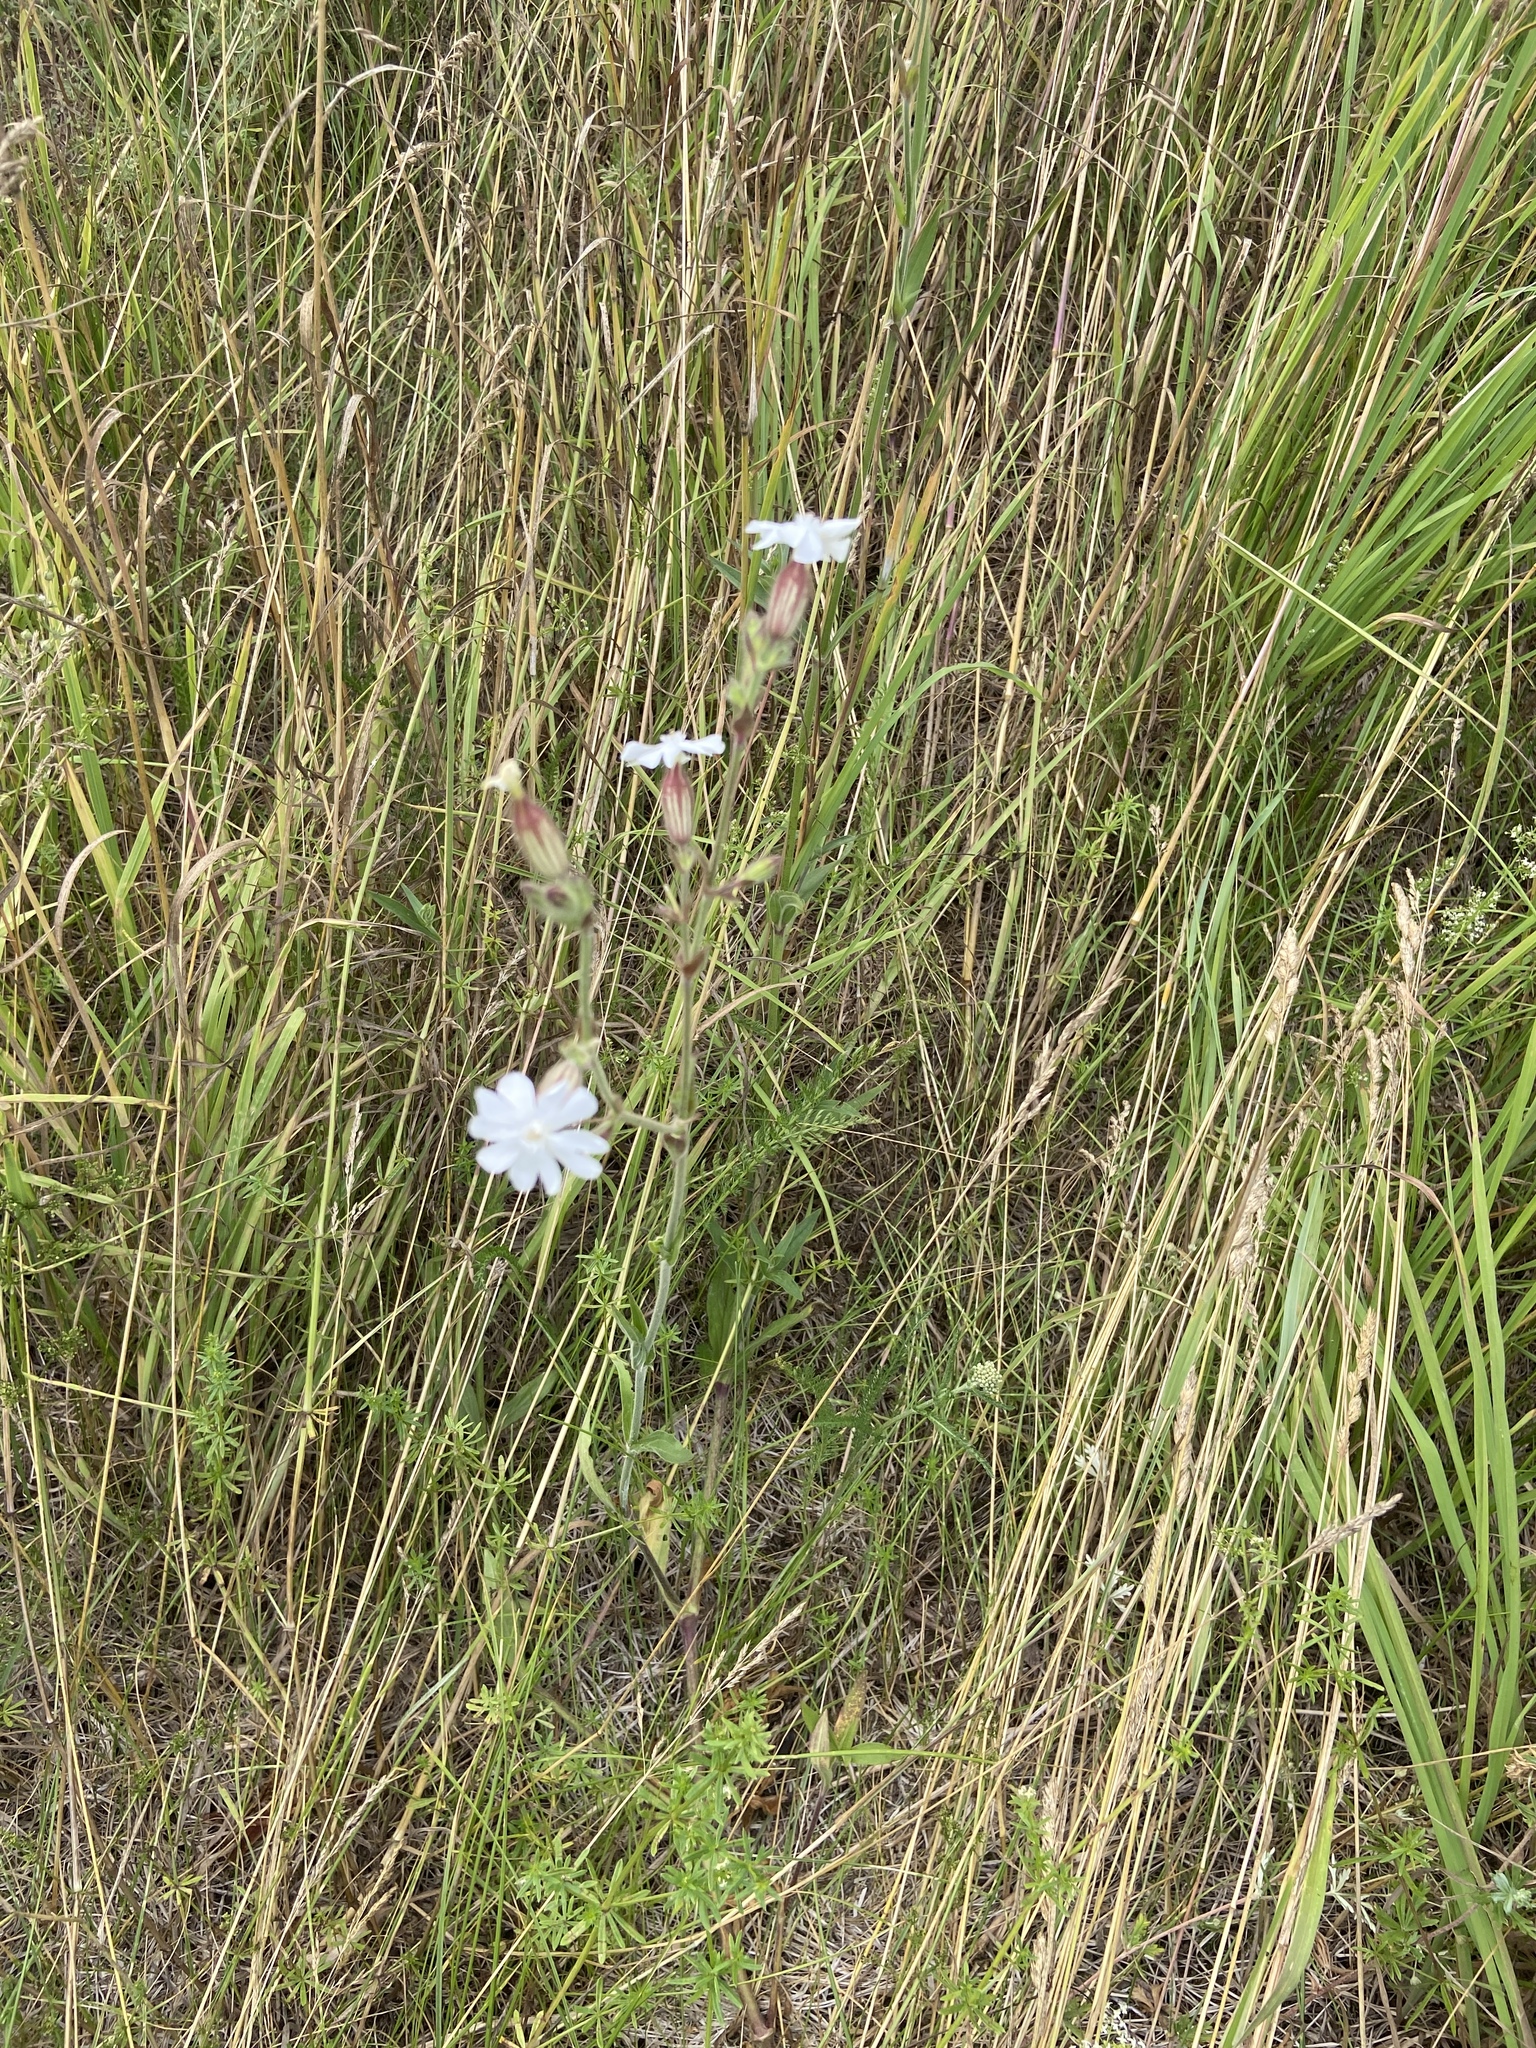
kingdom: Plantae
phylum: Tracheophyta
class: Magnoliopsida
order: Caryophyllales
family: Caryophyllaceae
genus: Silene
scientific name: Silene latifolia
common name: White campion
